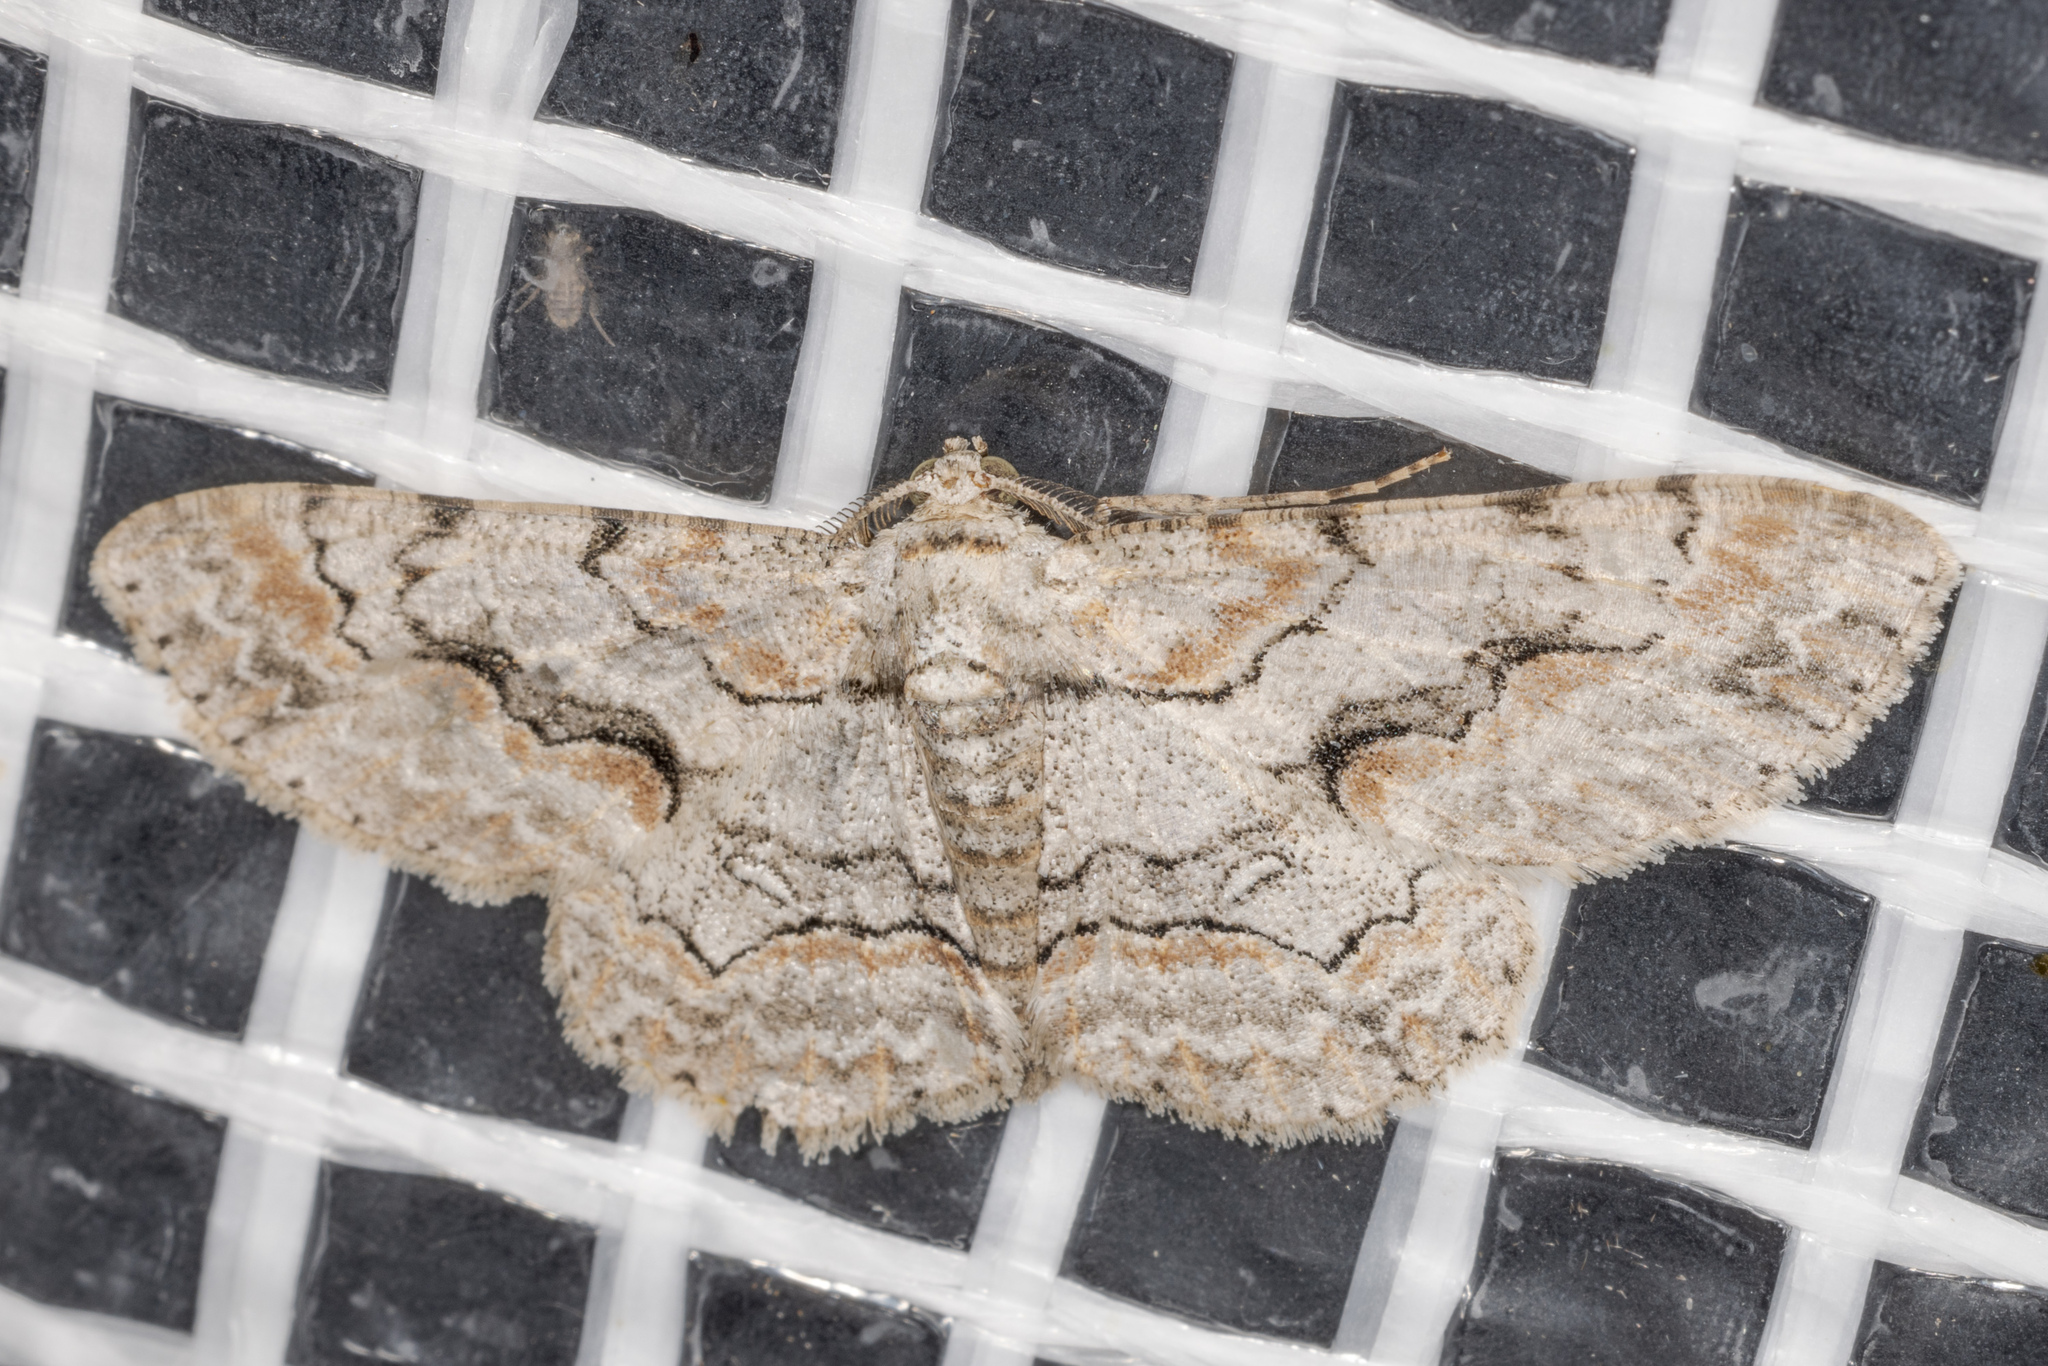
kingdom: Animalia
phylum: Arthropoda
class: Insecta
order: Lepidoptera
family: Geometridae
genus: Iridopsis
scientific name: Iridopsis defectaria
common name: Brown-shaded gray
